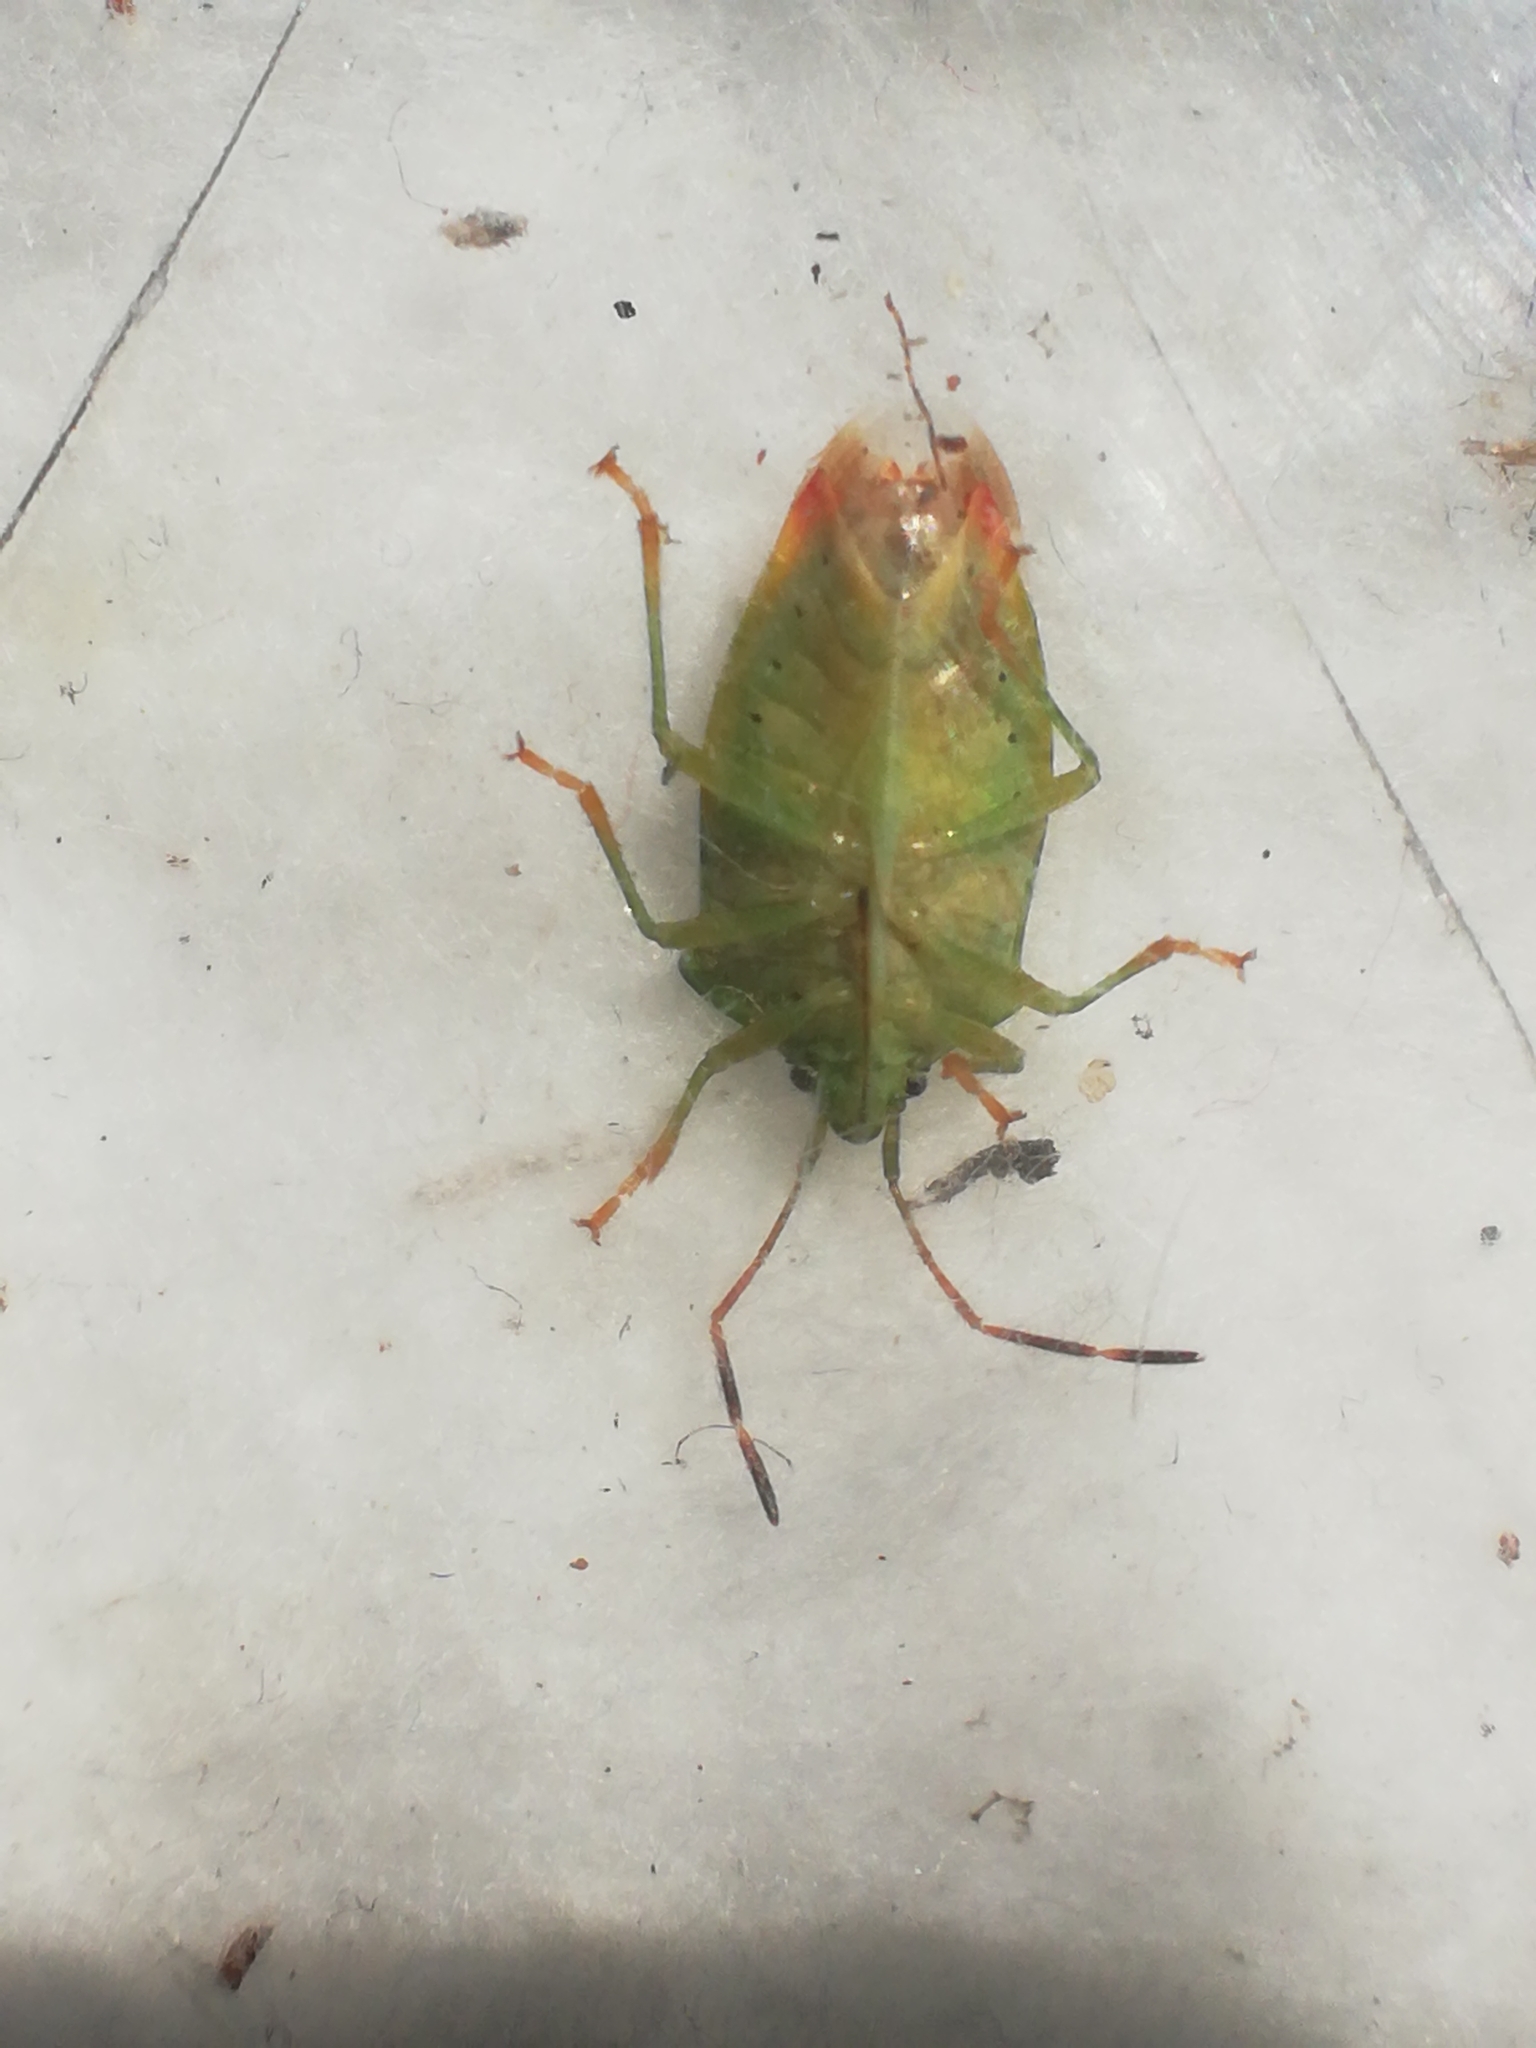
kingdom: Animalia
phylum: Arthropoda
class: Insecta
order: Hemiptera
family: Acanthosomatidae
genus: Elasmostethus
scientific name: Elasmostethus minor
